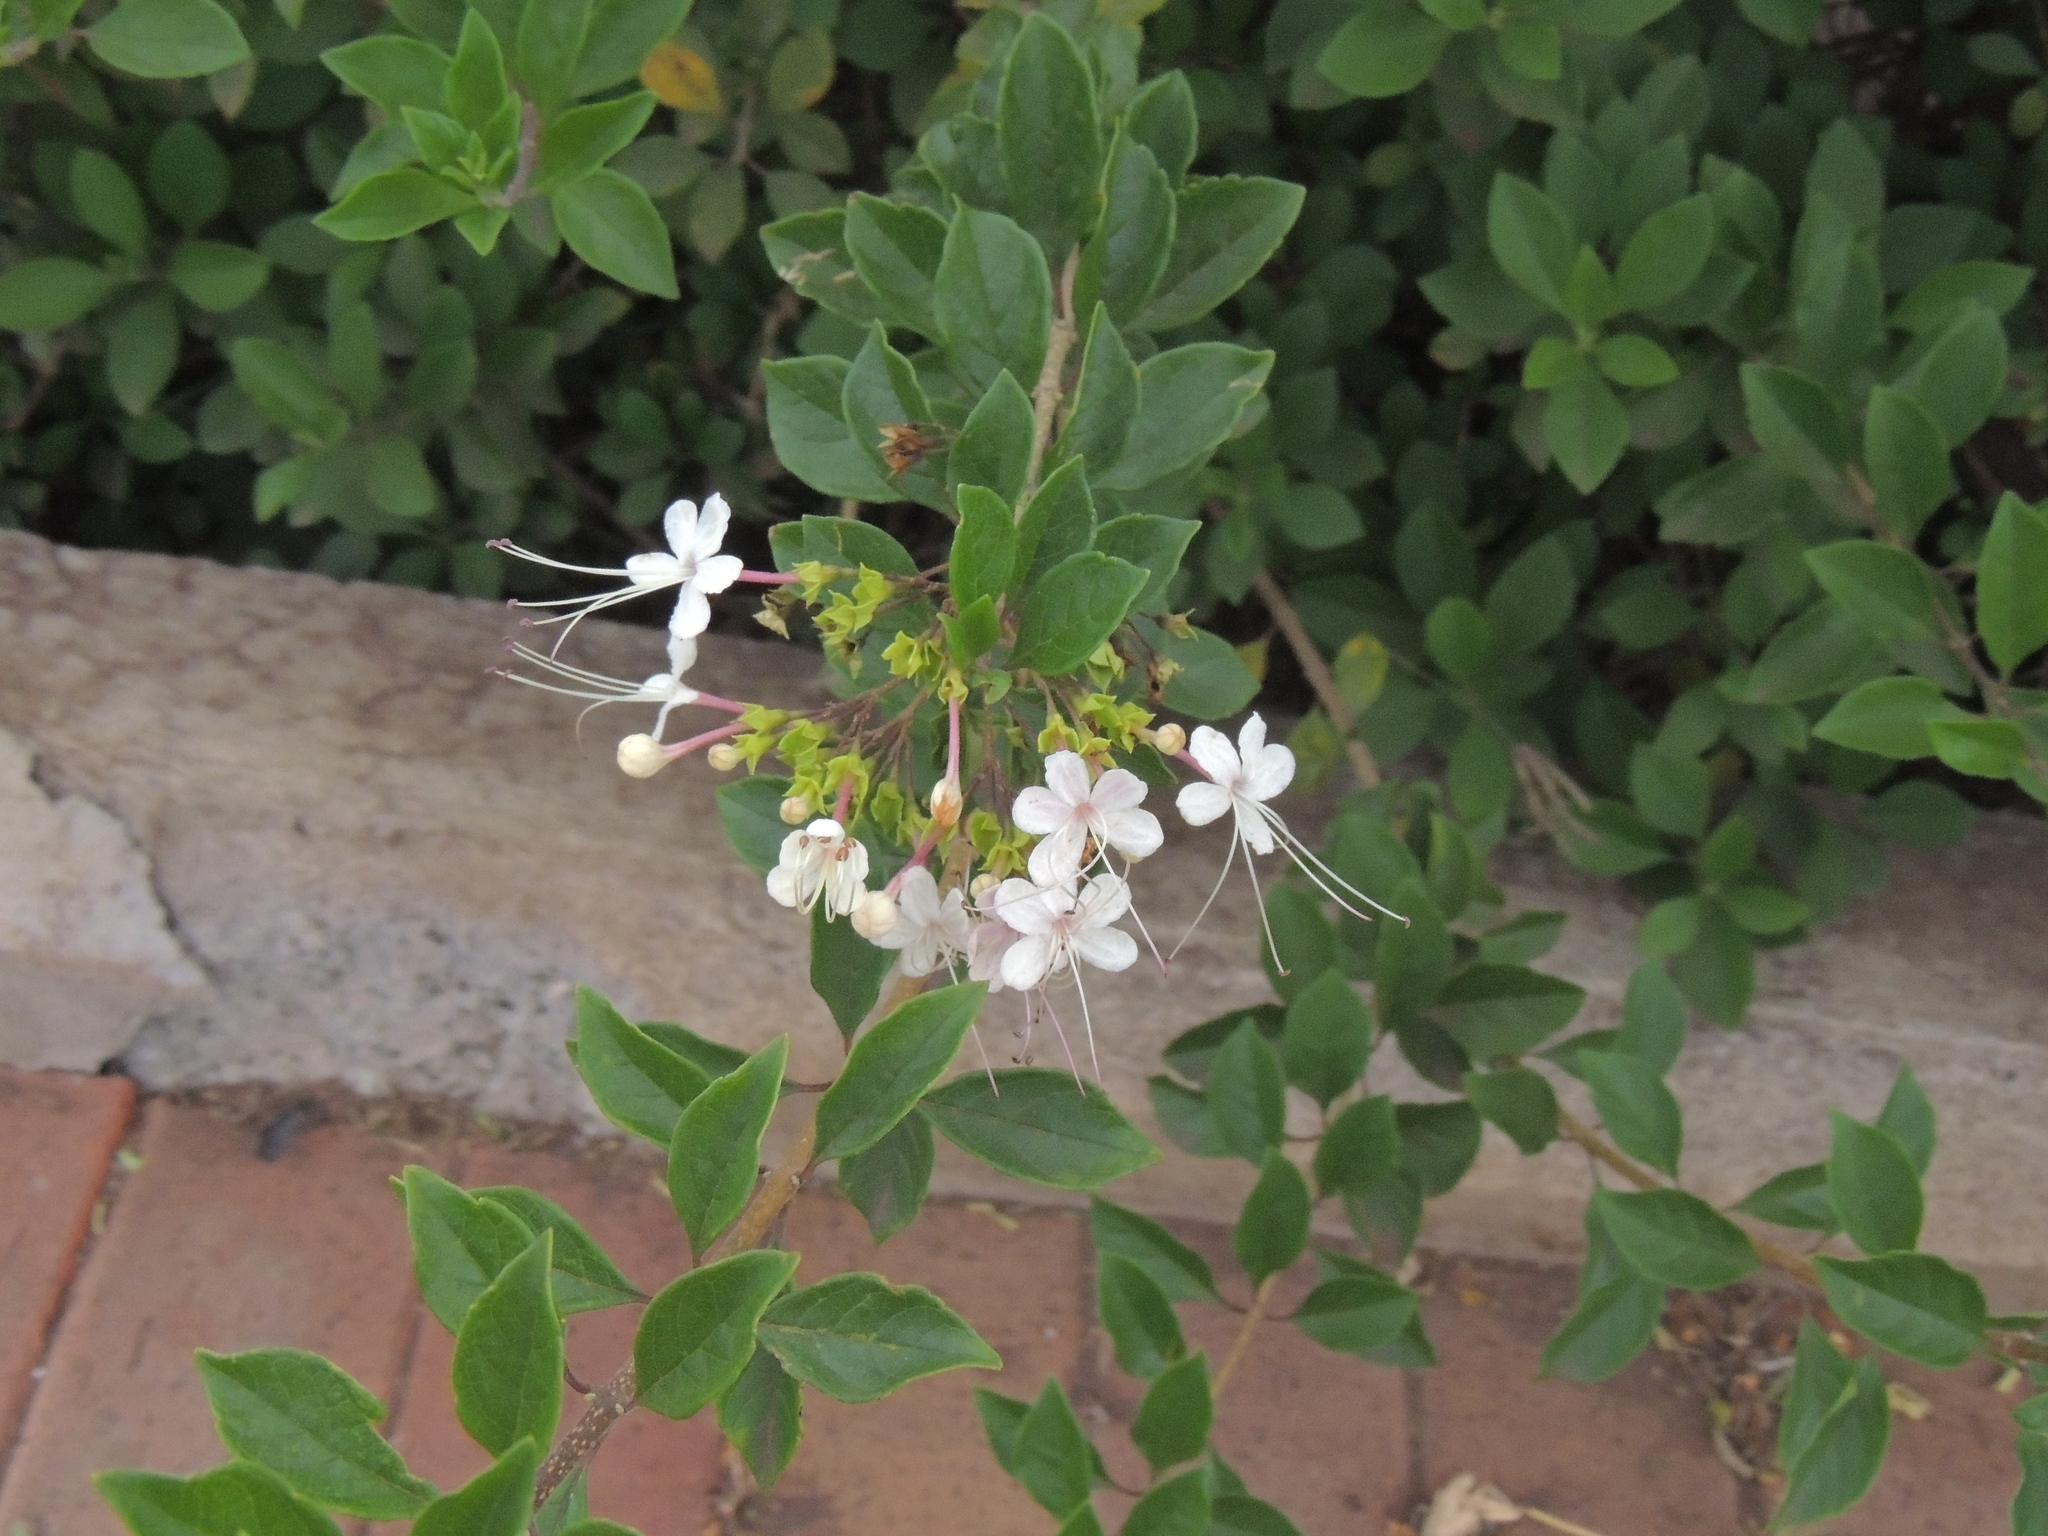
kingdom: Plantae
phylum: Tracheophyta
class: Magnoliopsida
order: Lamiales
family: Lamiaceae
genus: Volkameria
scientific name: Volkameria mollis
